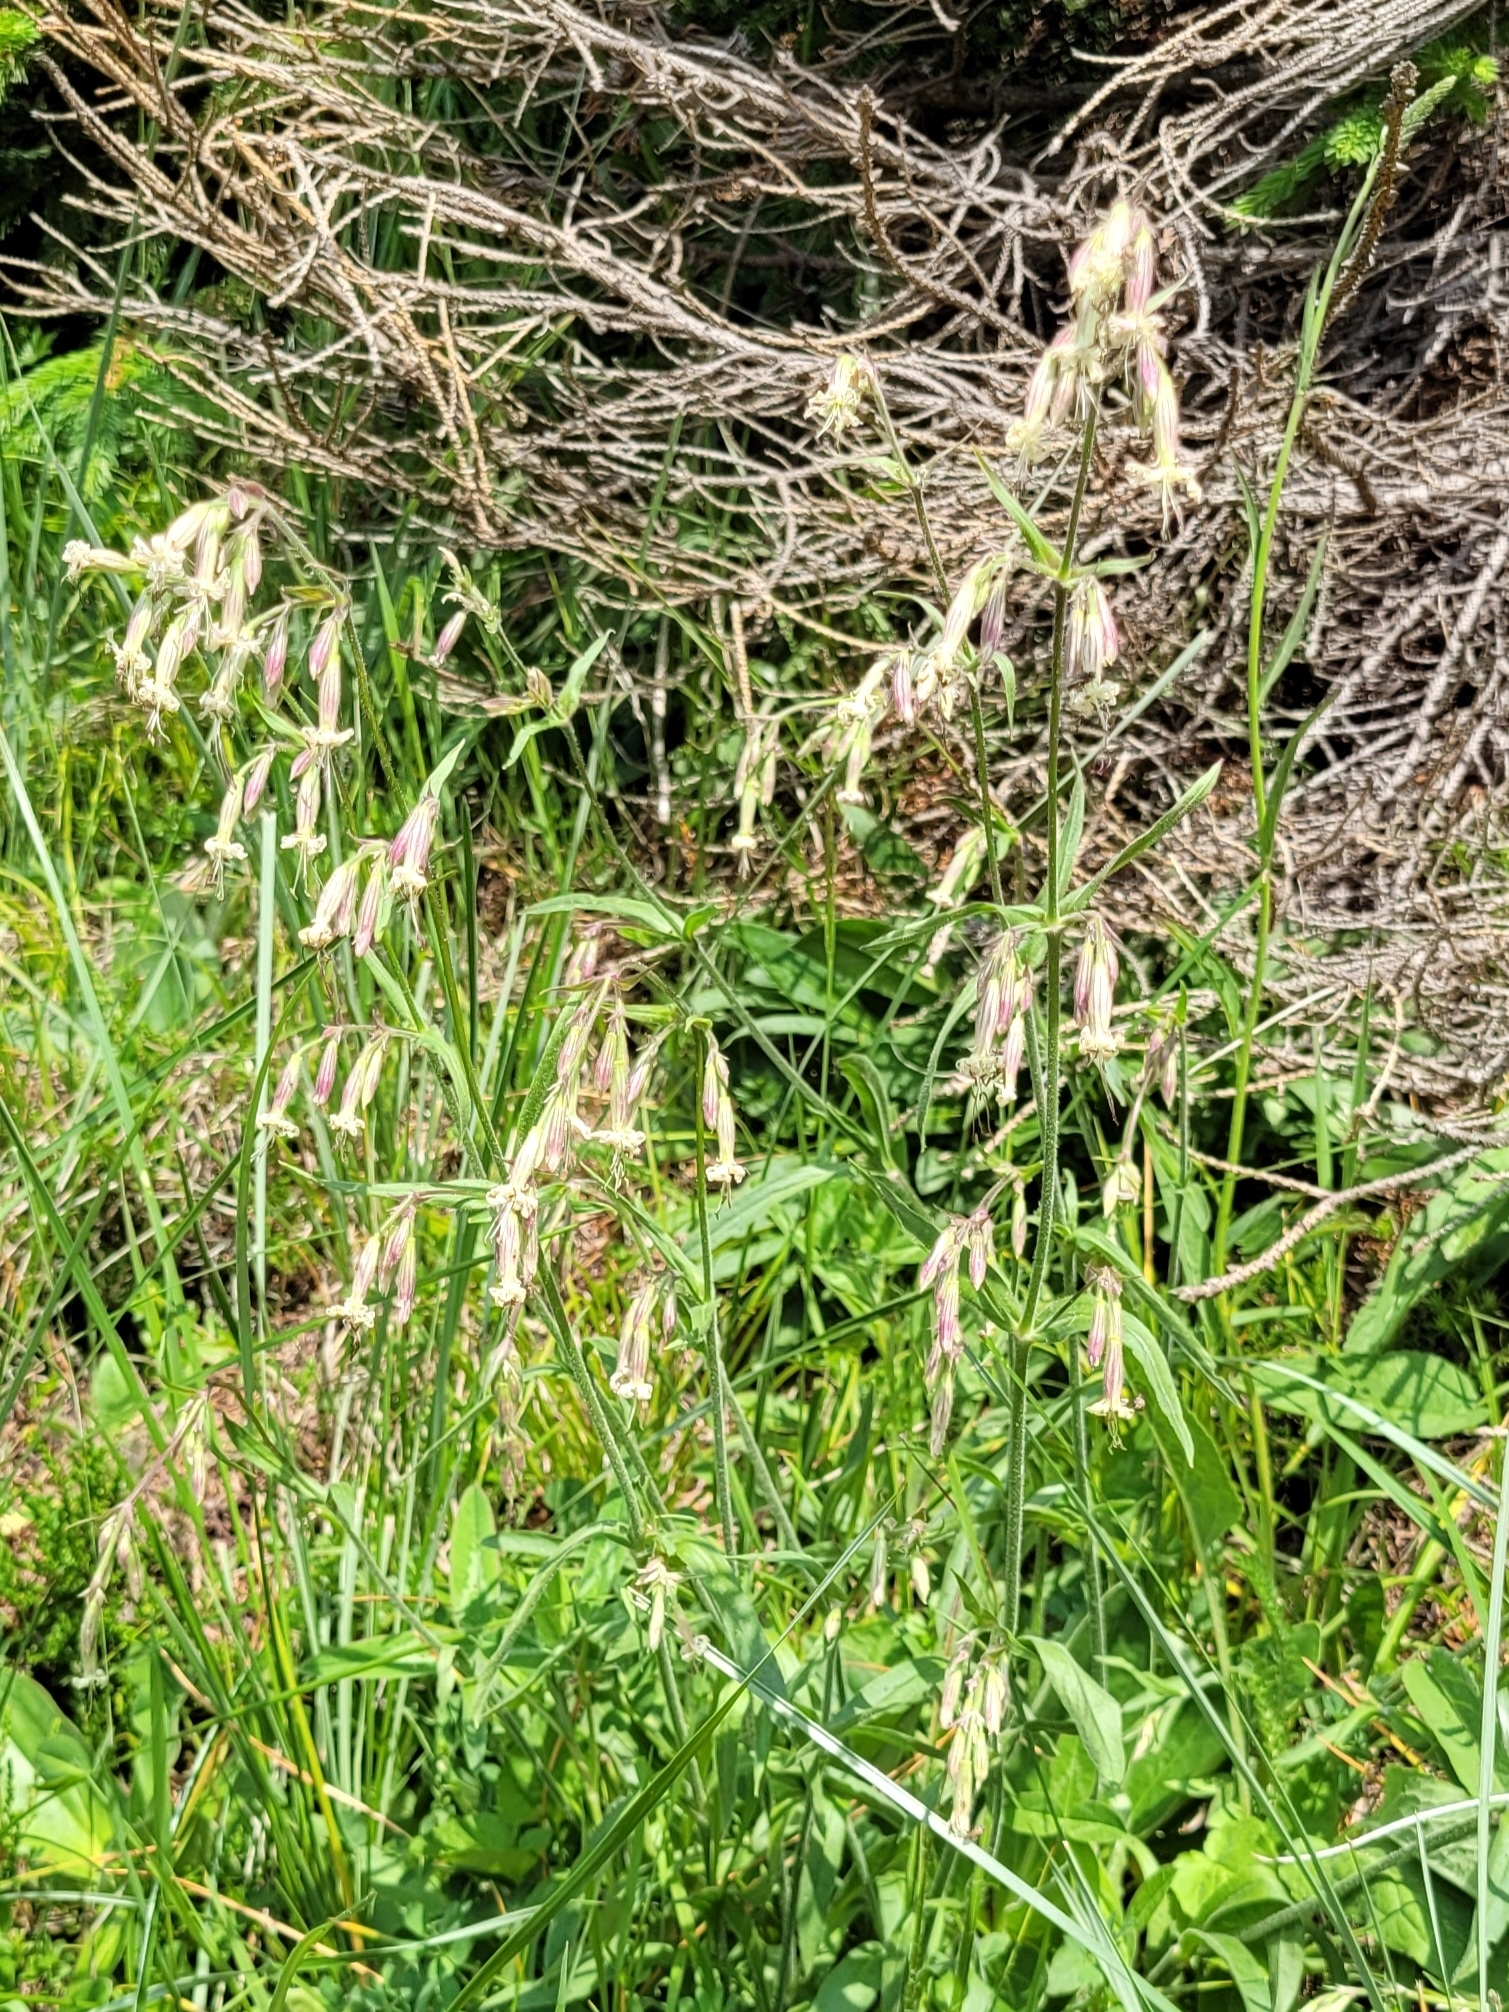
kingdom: Plantae
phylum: Tracheophyta
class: Magnoliopsida
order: Caryophyllales
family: Caryophyllaceae
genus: Silene
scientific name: Silene nutans
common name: Nottingham catchfly
